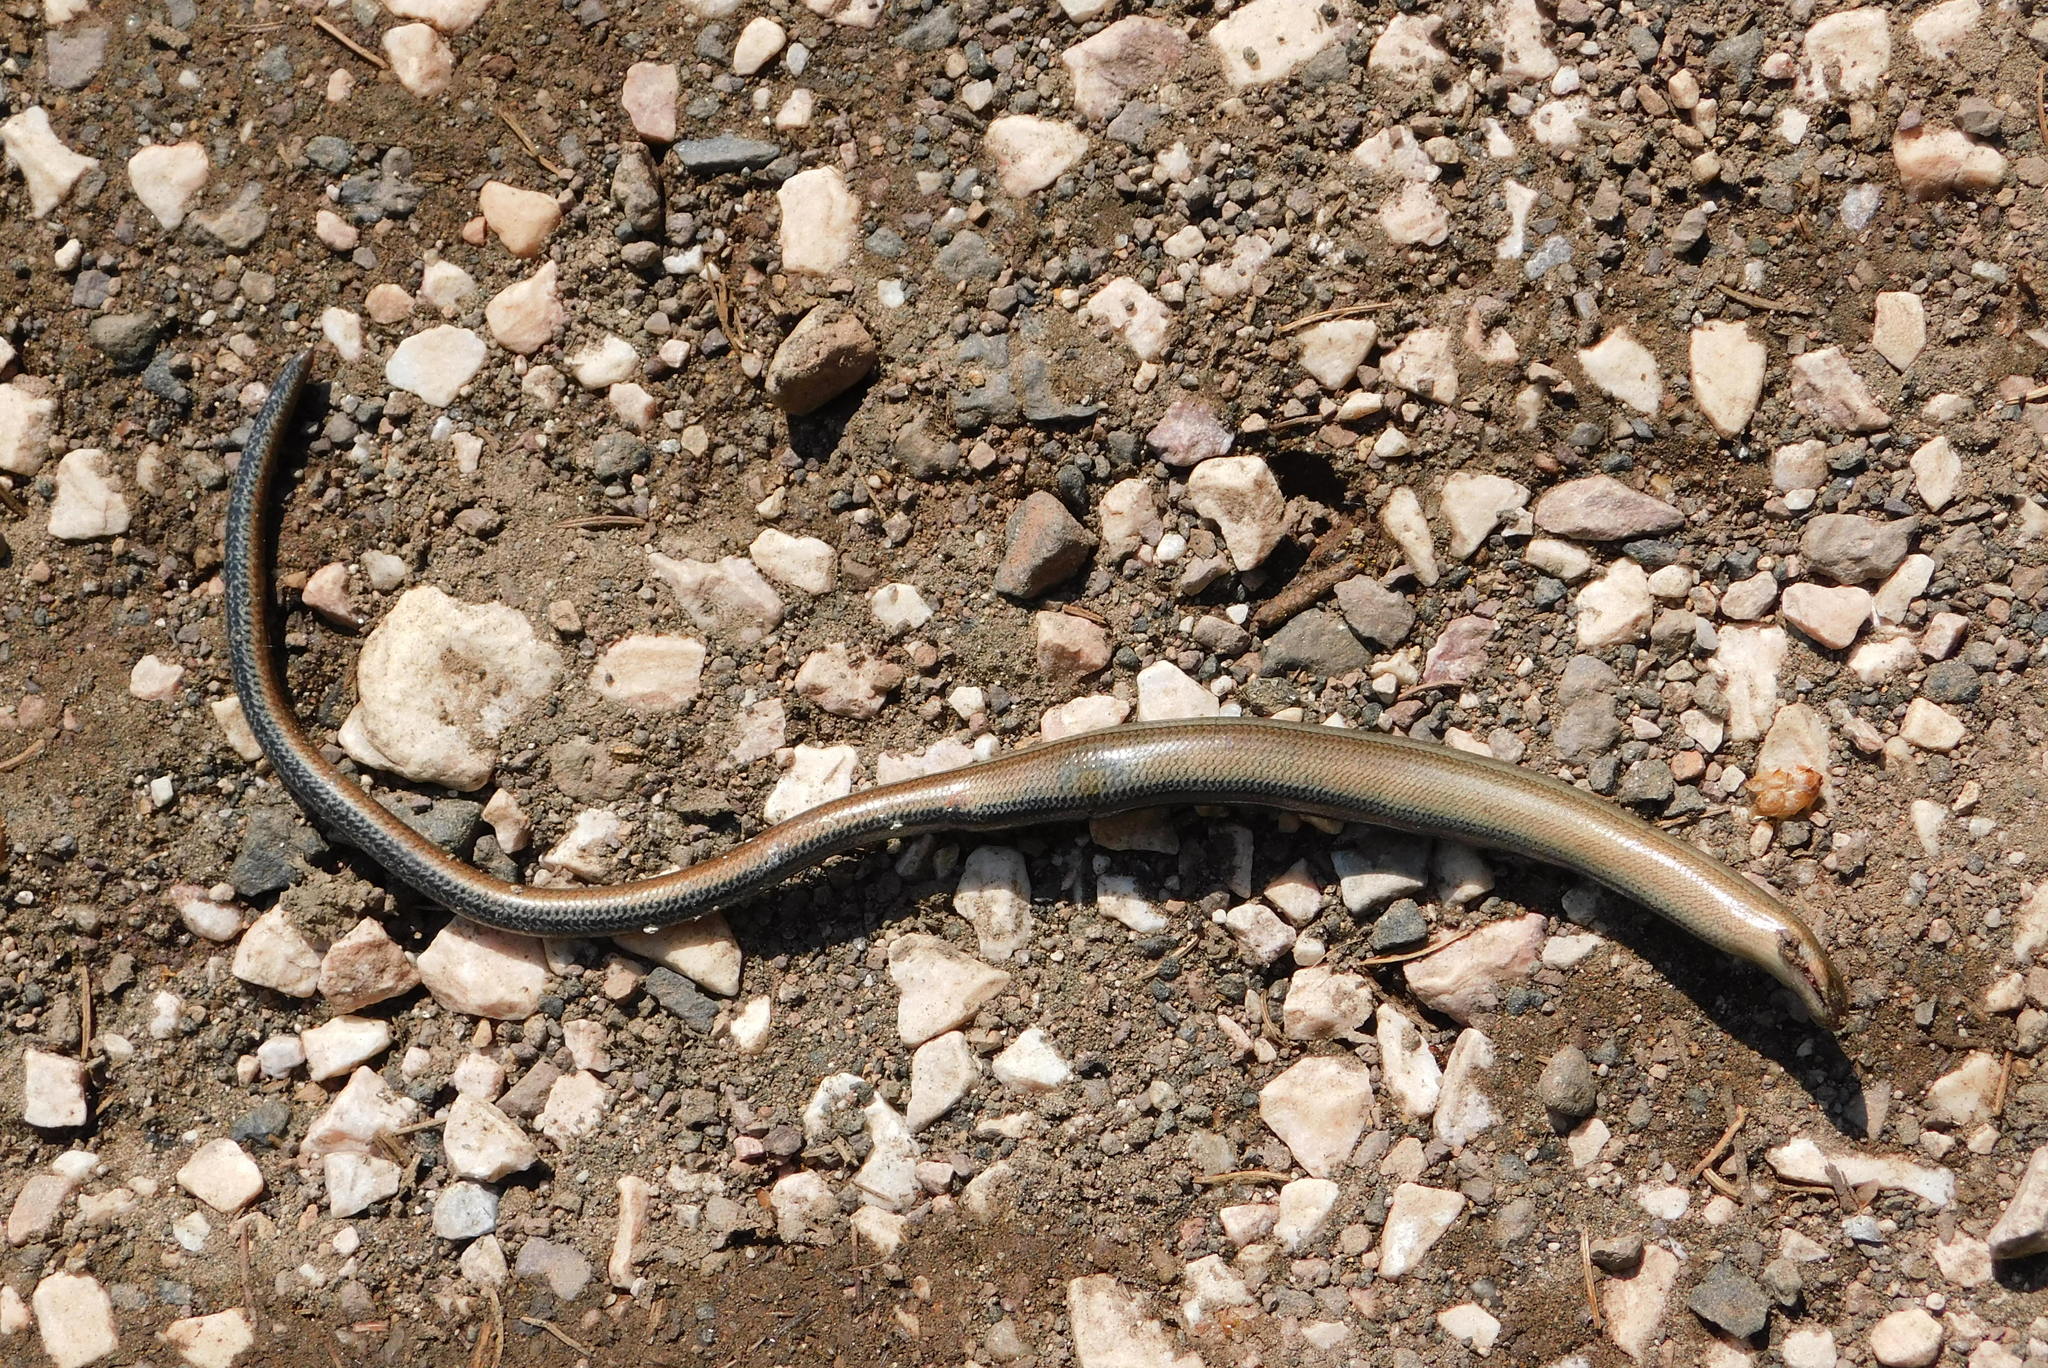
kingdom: Animalia
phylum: Chordata
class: Squamata
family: Anguidae
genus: Anguis
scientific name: Anguis fragilis
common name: Slow worm
